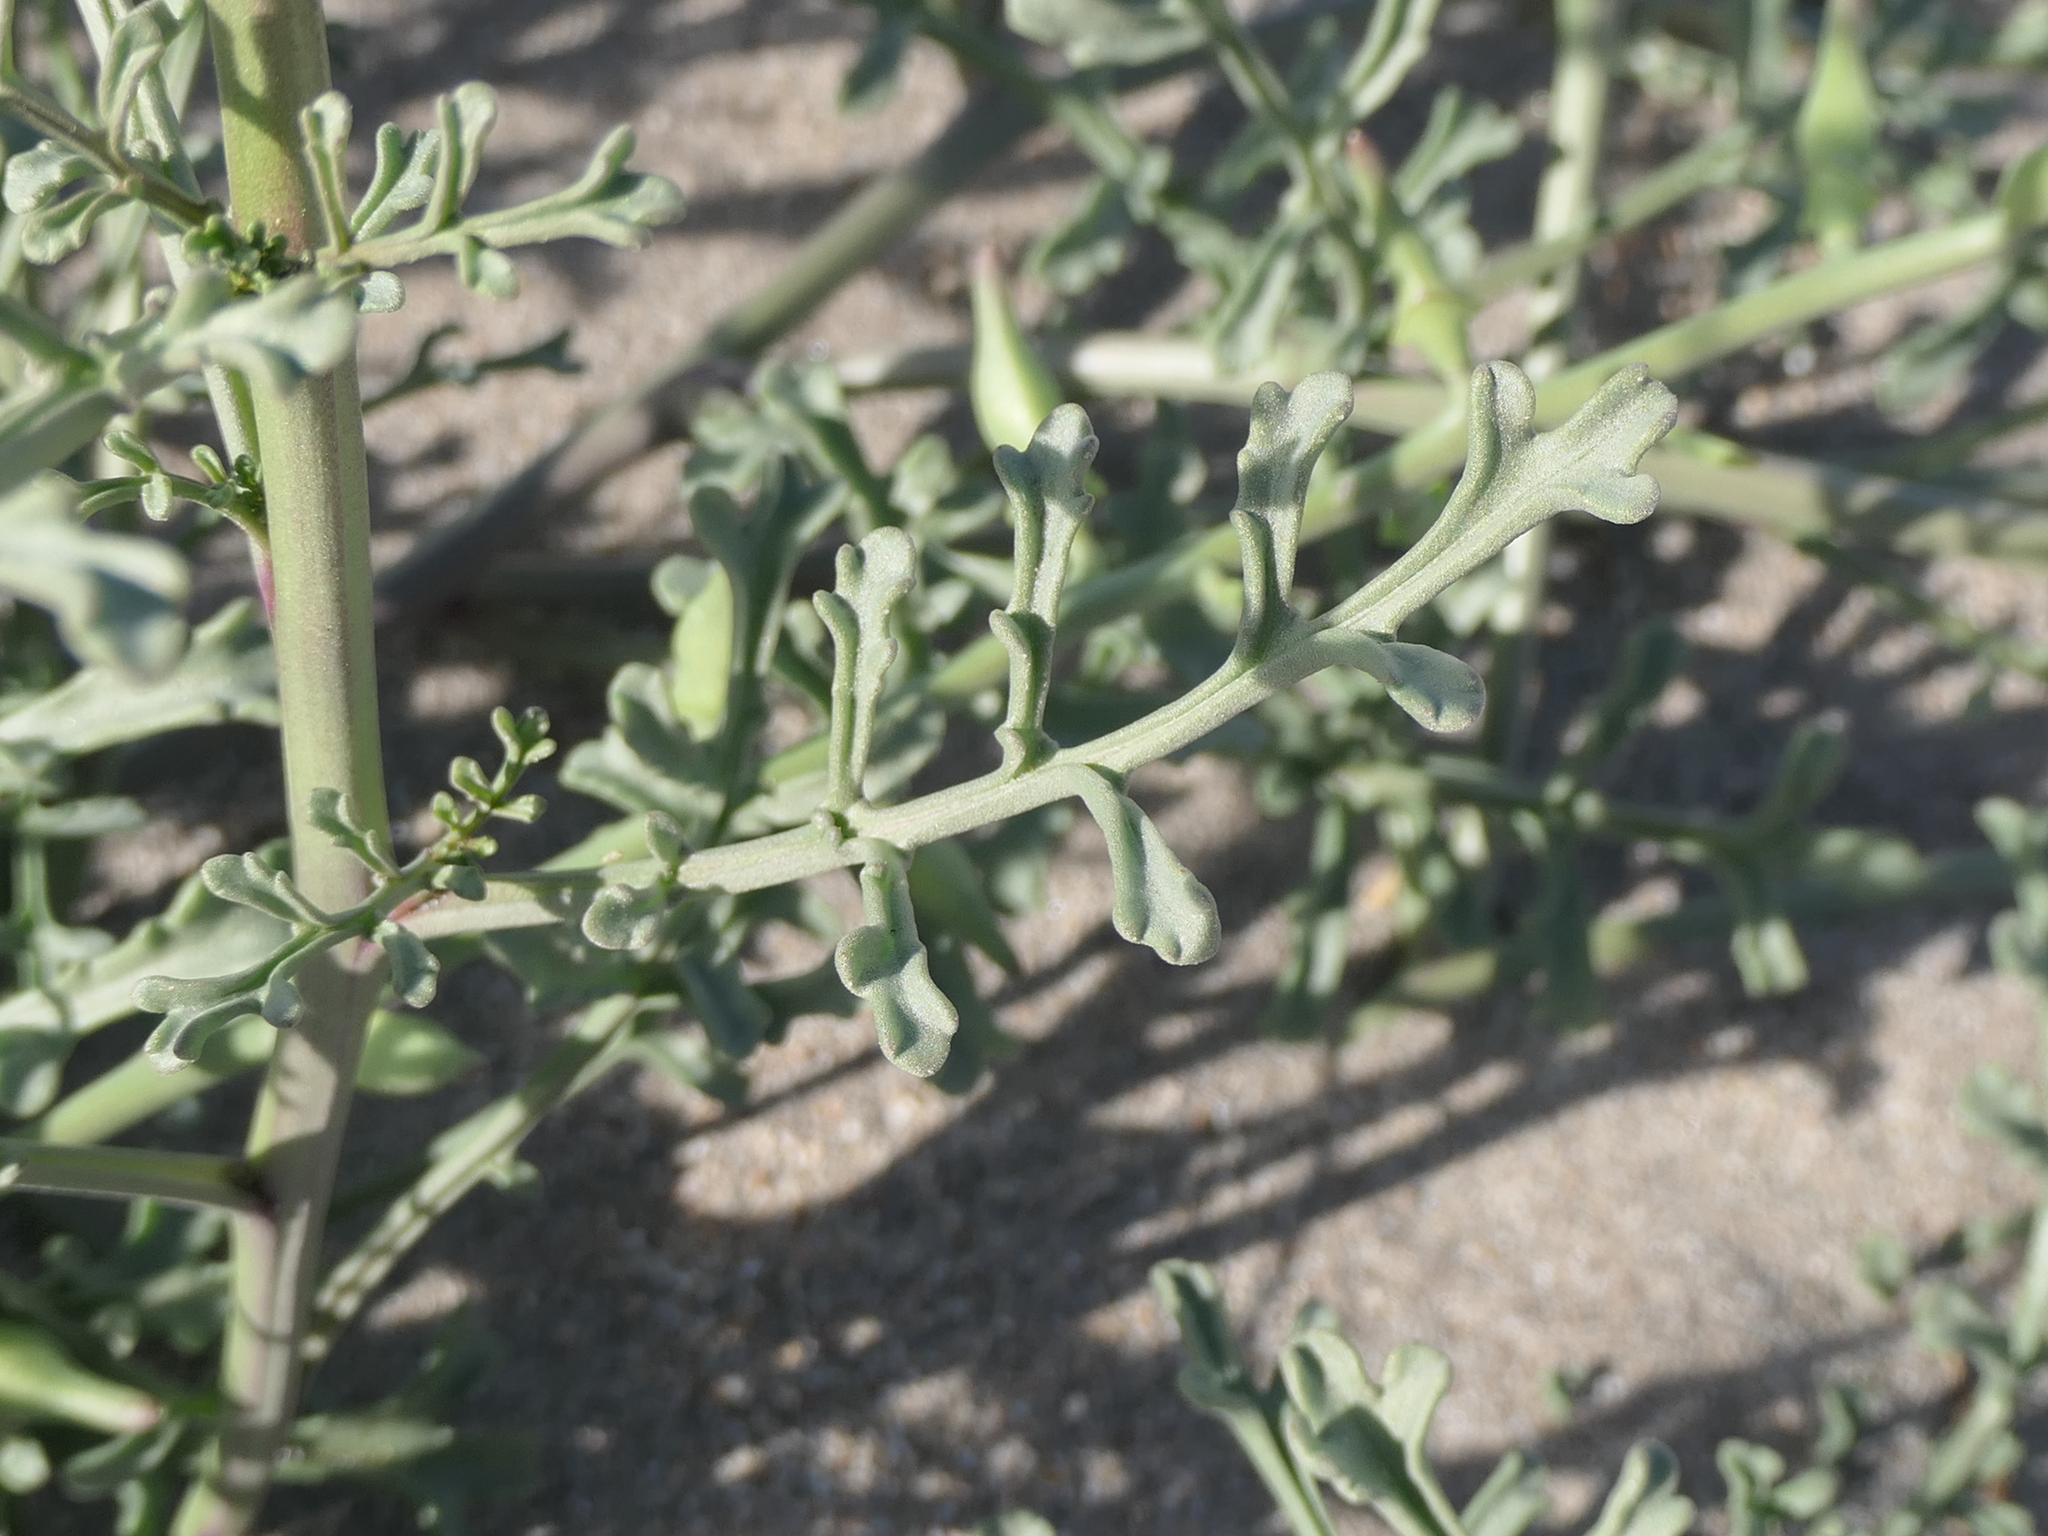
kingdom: Plantae
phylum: Tracheophyta
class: Magnoliopsida
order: Brassicales
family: Brassicaceae
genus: Cakile
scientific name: Cakile maritima
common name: Sea rocket
